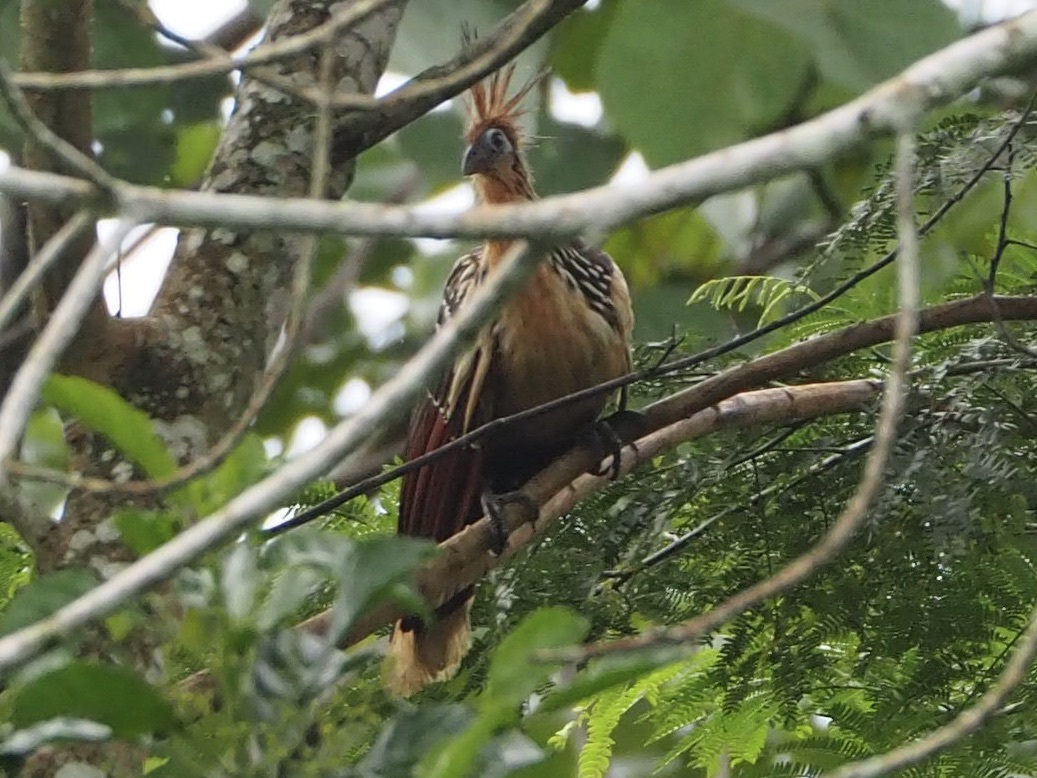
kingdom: Animalia
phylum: Chordata
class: Aves
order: Opisthocomiformes
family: Opisthocomidae
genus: Opisthocomus
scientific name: Opisthocomus hoazin
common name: Hoatzin
